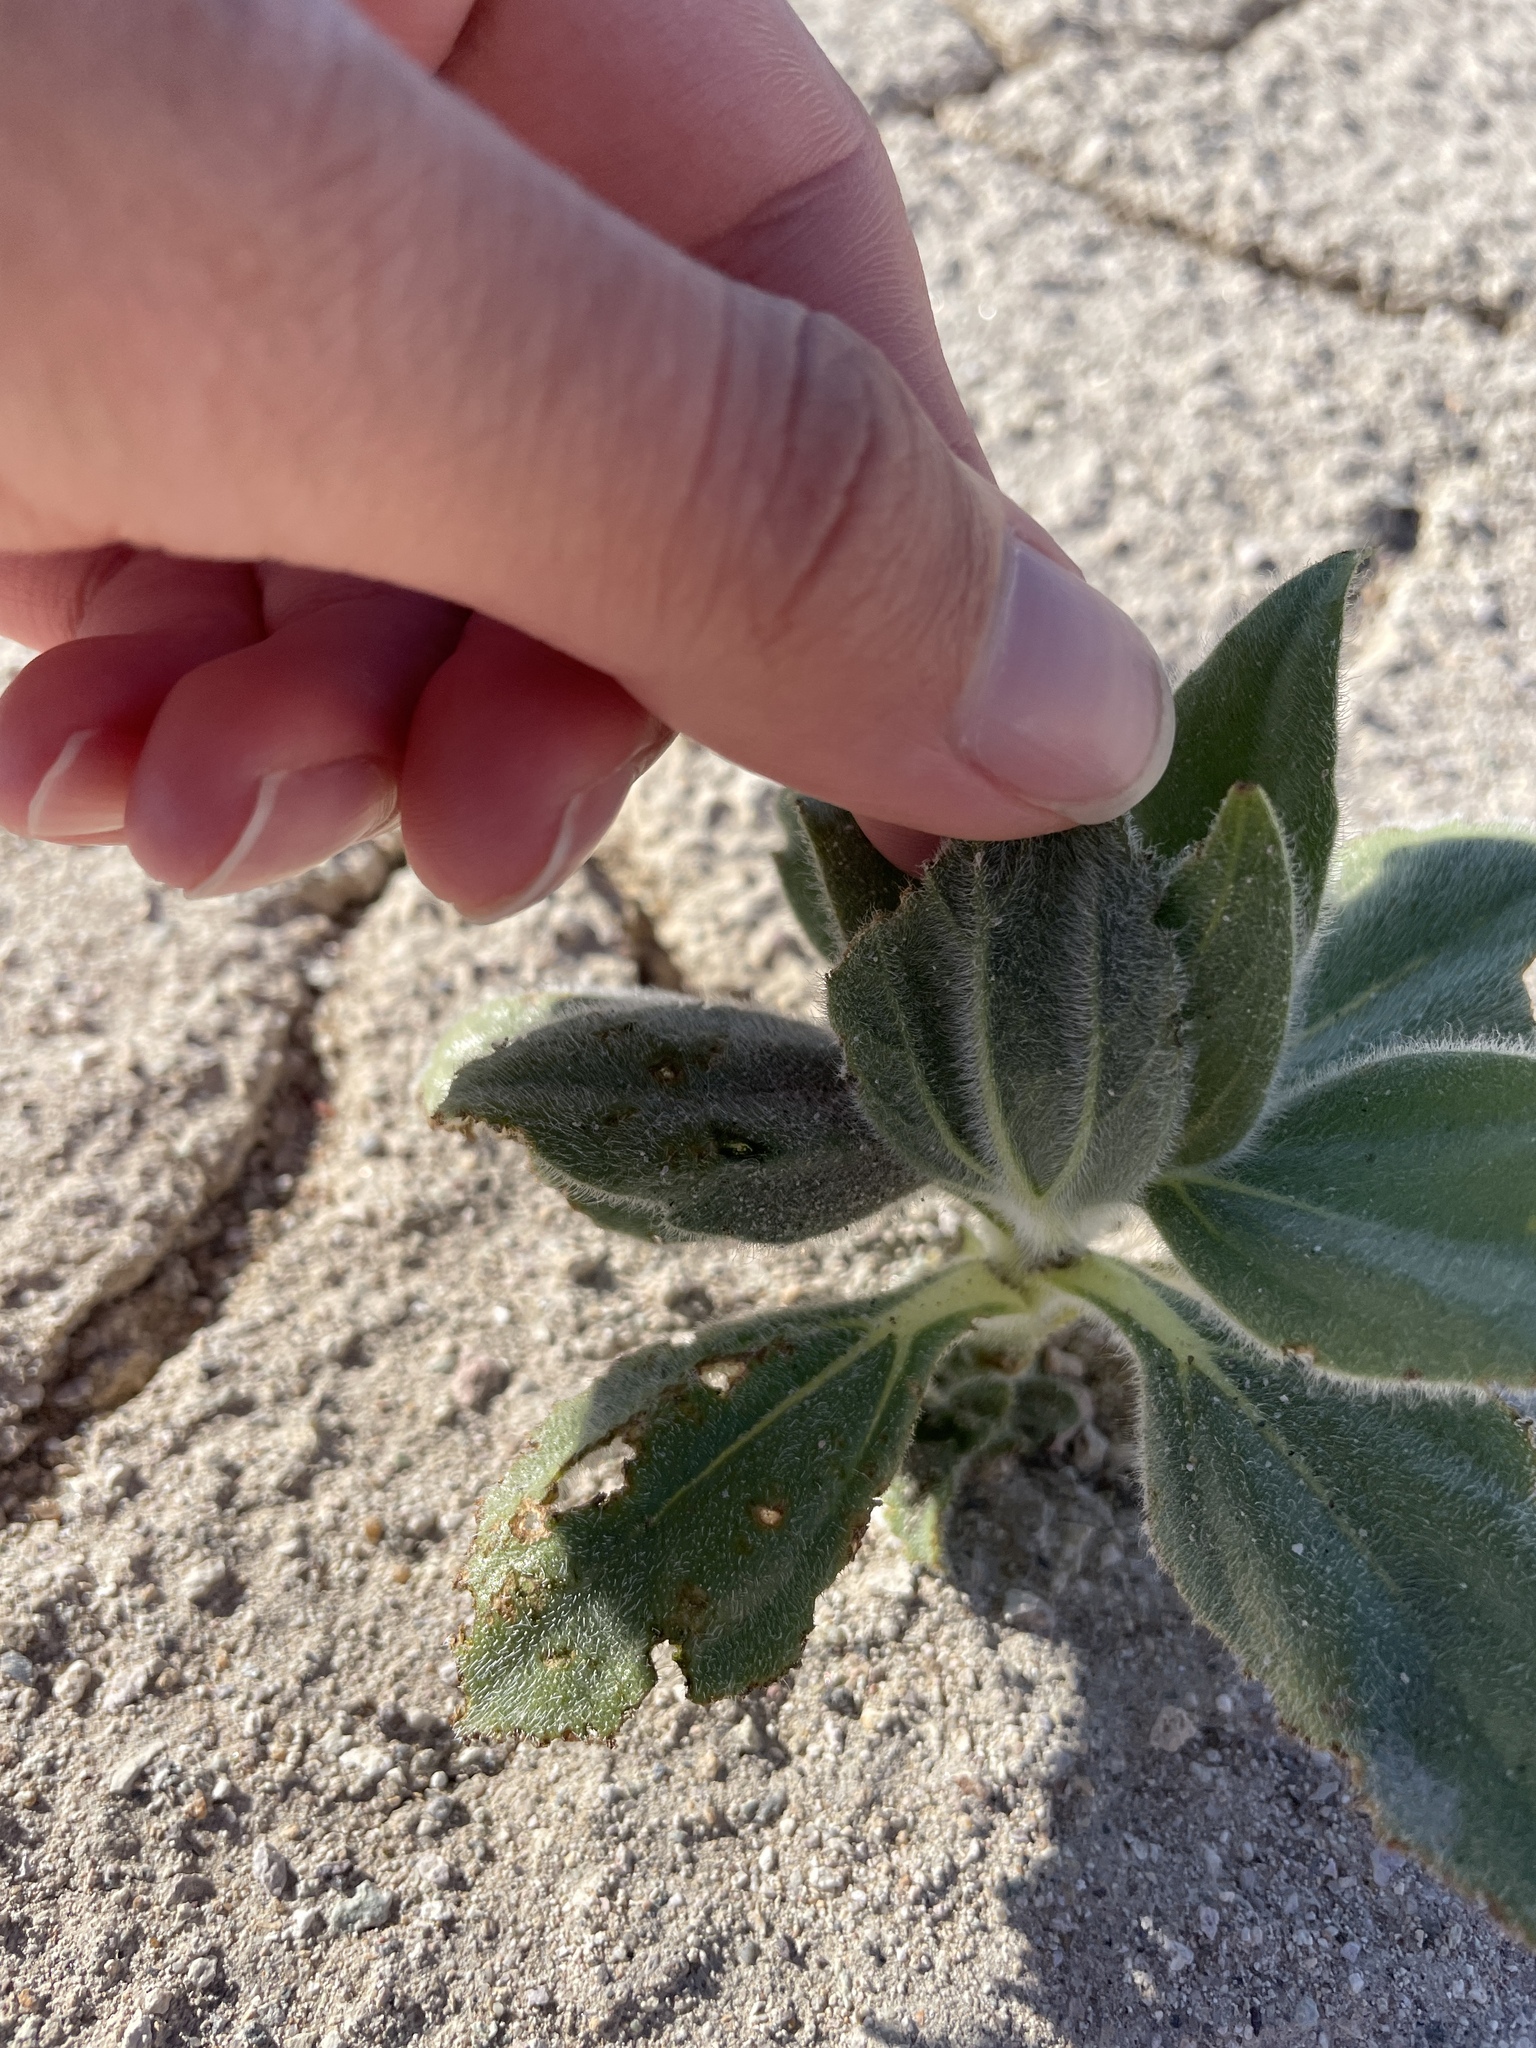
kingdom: Plantae
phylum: Tracheophyta
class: Magnoliopsida
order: Asterales
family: Asteraceae
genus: Geraea
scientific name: Geraea canescens
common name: Desert-gold
